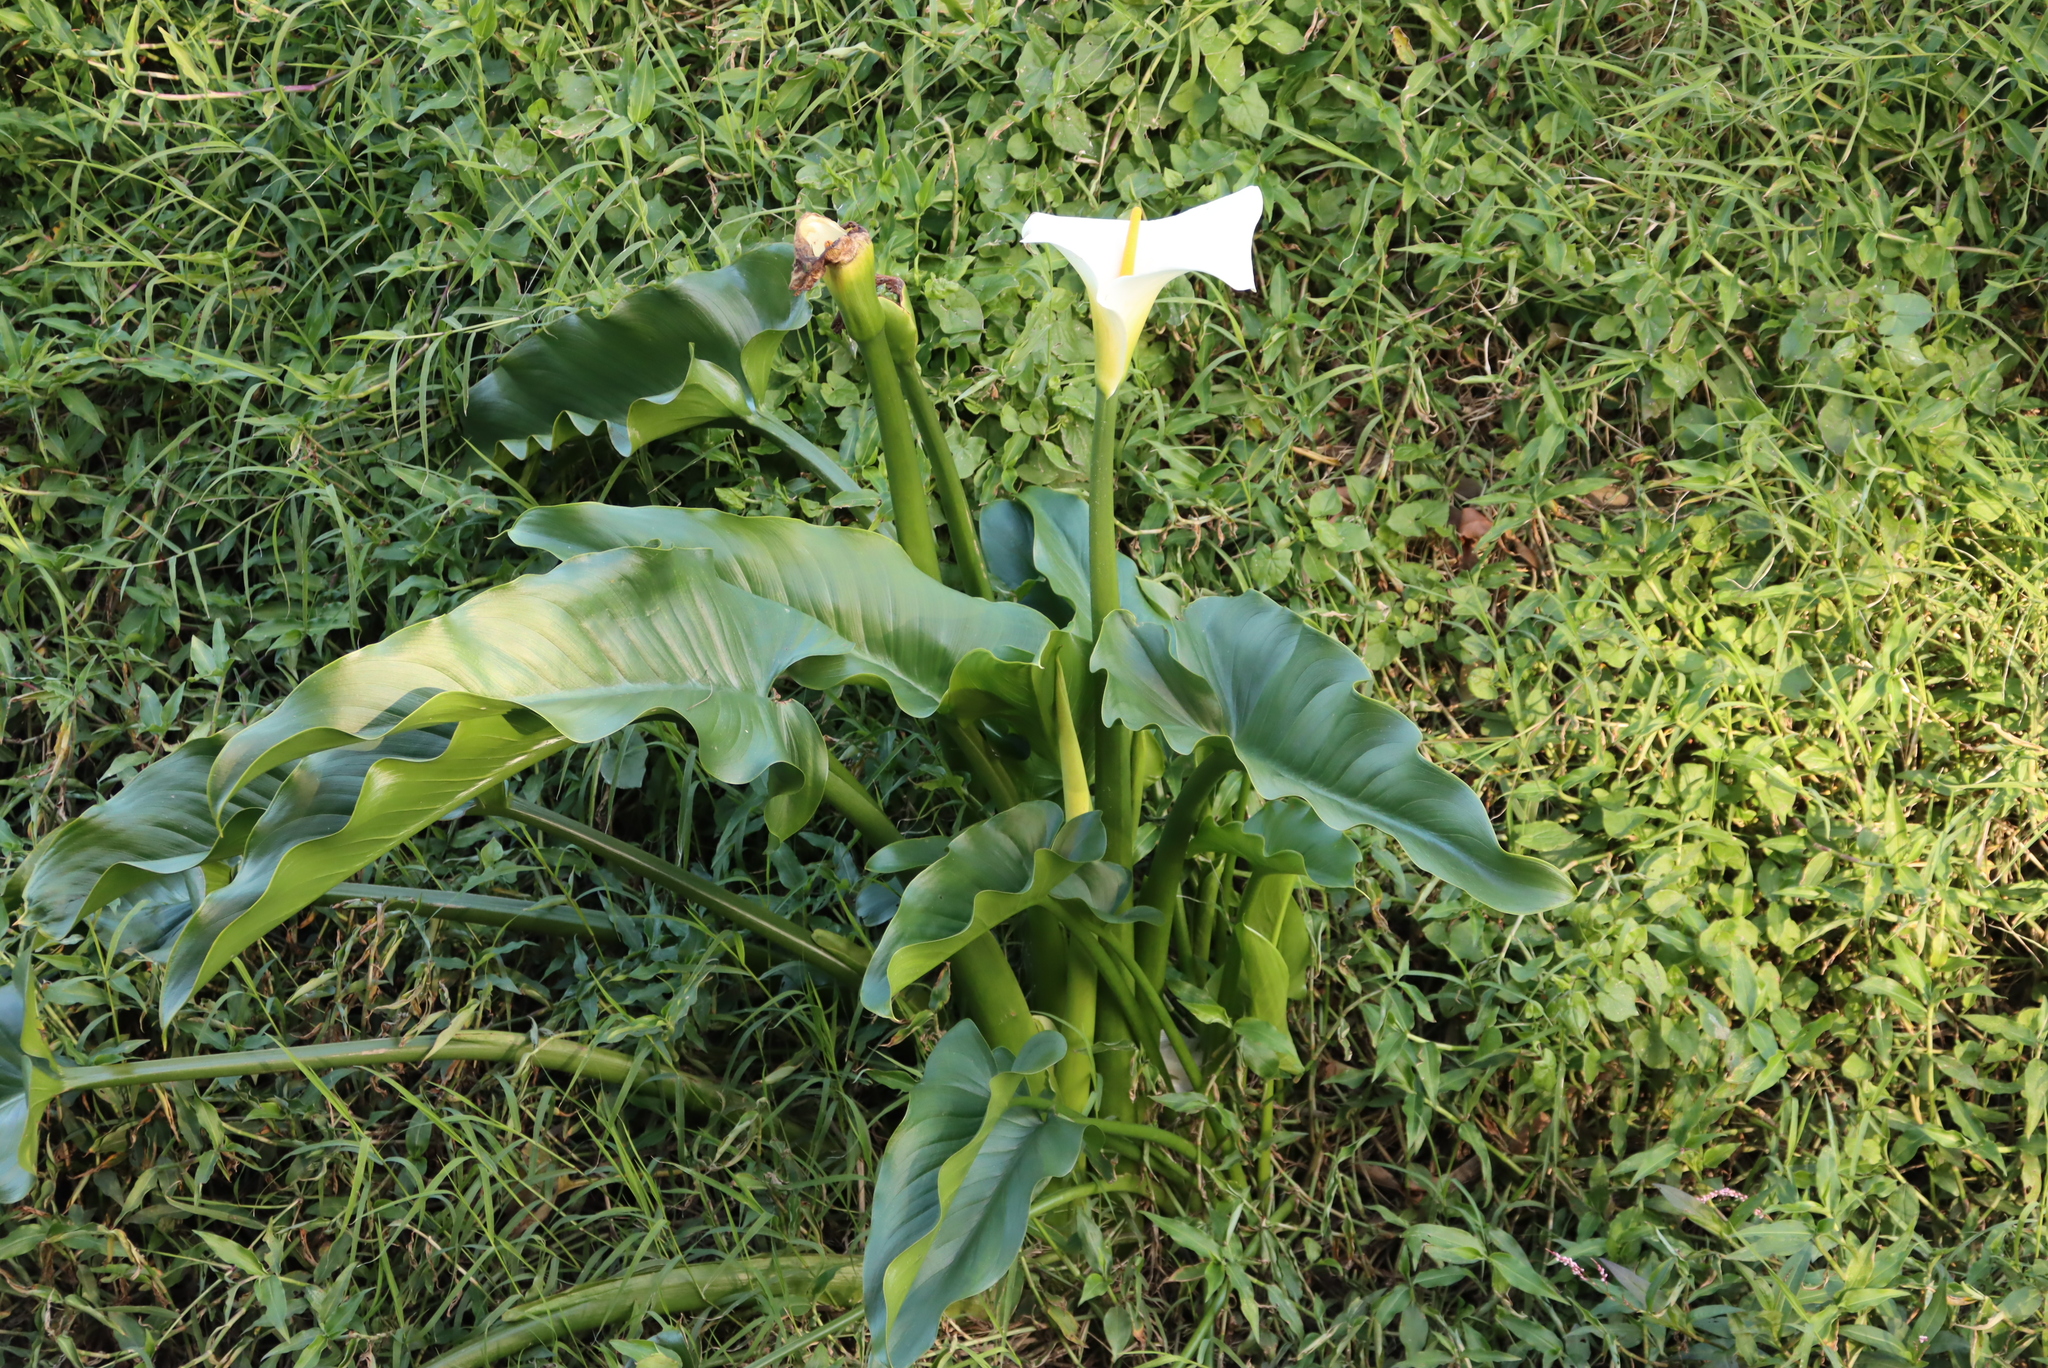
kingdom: Plantae
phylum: Tracheophyta
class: Liliopsida
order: Alismatales
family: Araceae
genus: Zantedeschia
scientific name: Zantedeschia aethiopica
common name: Altar-lily
